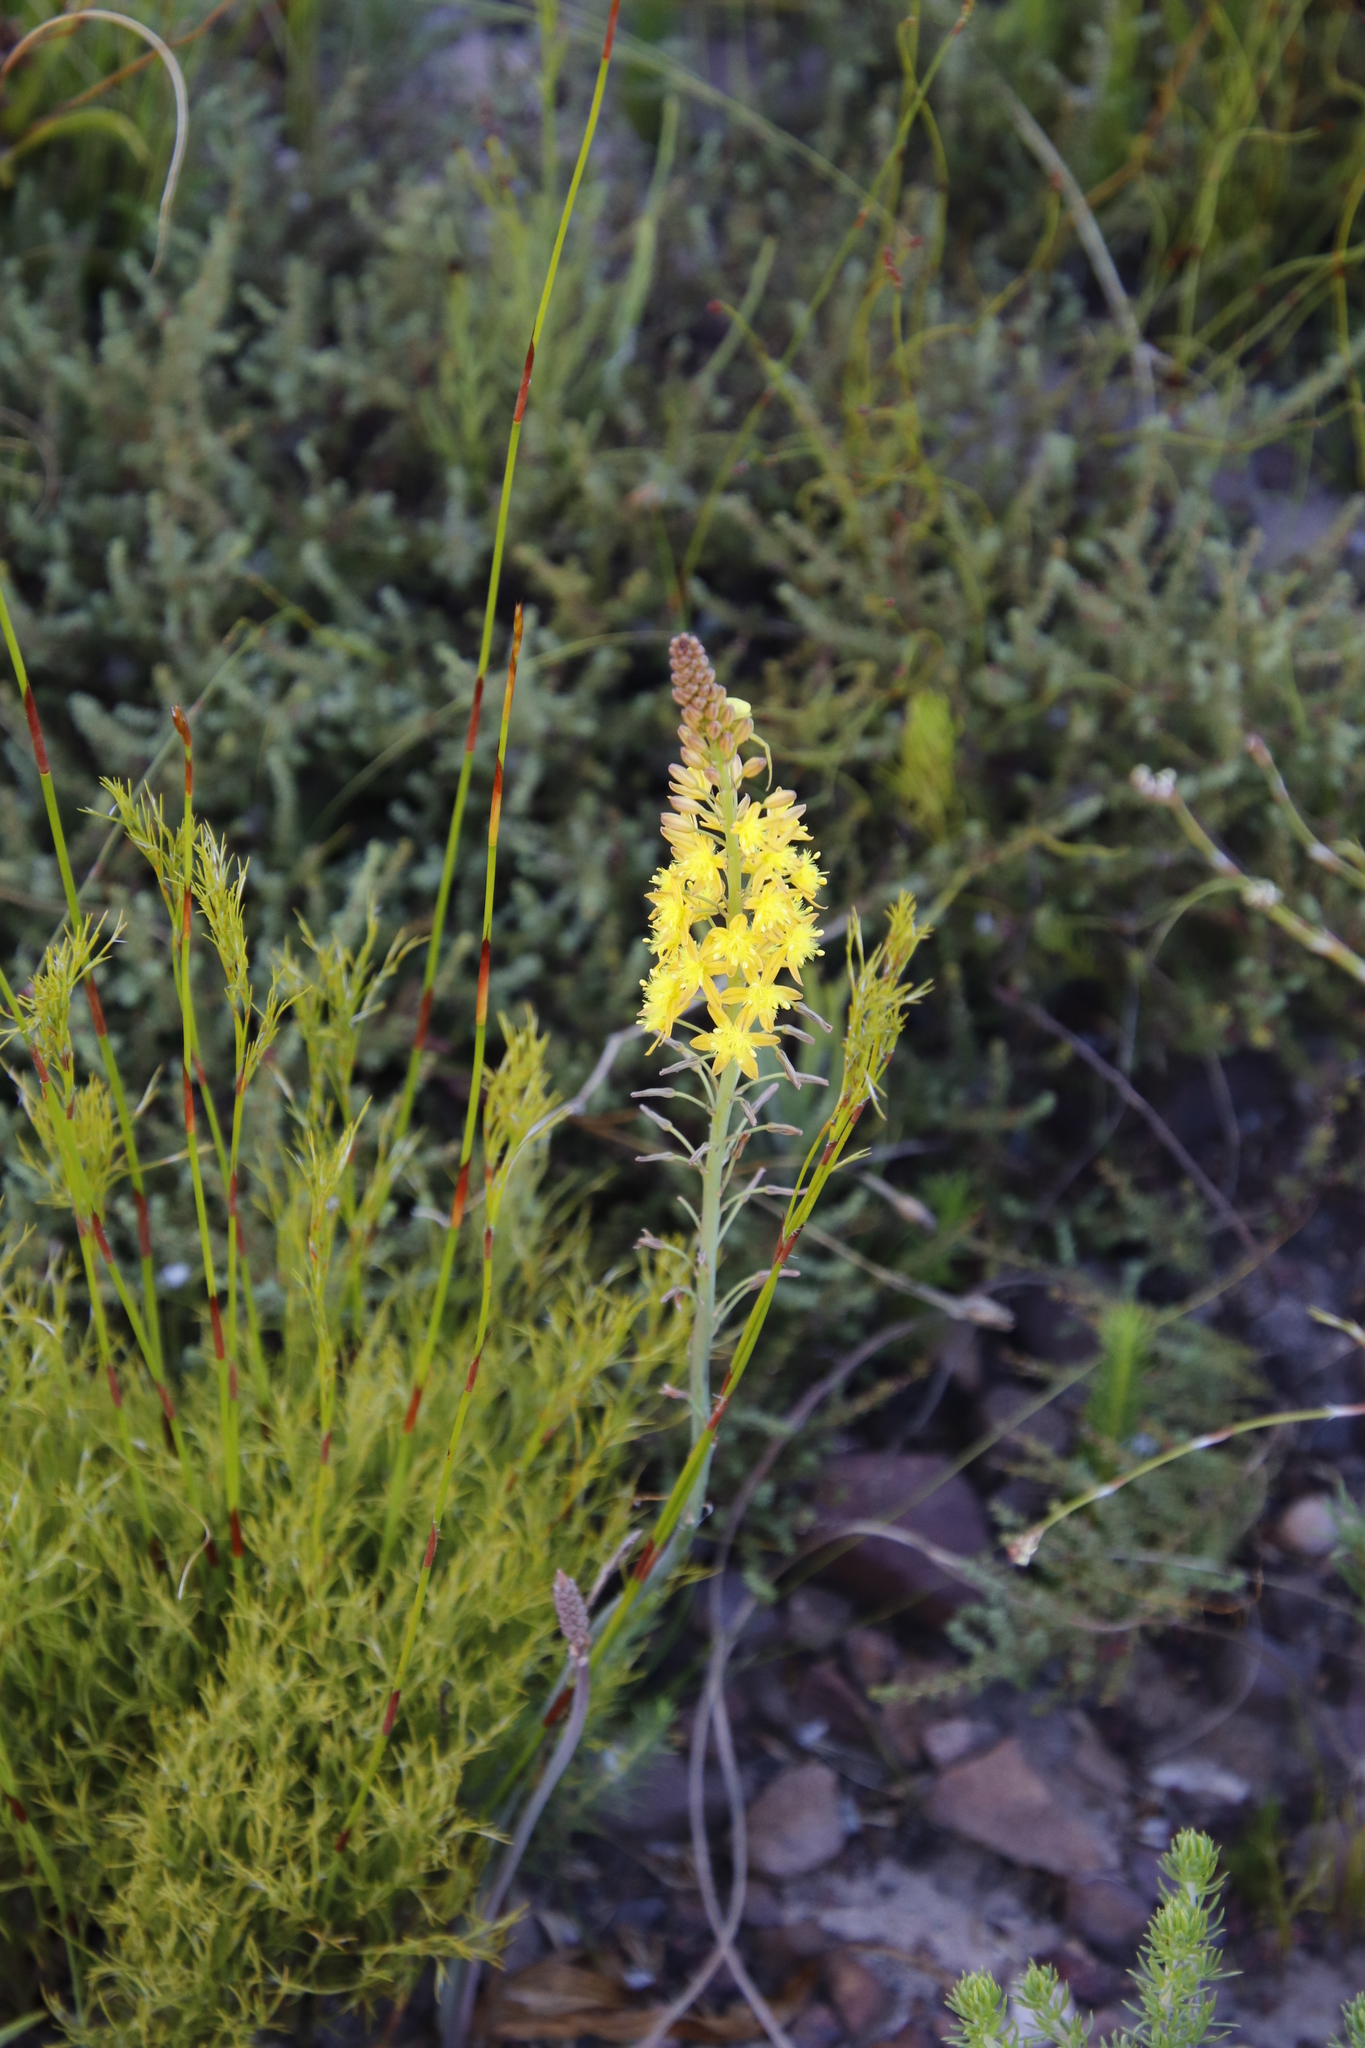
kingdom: Plantae
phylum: Tracheophyta
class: Liliopsida
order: Asparagales
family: Asphodelaceae
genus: Bulbine
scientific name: Bulbine cepacea
